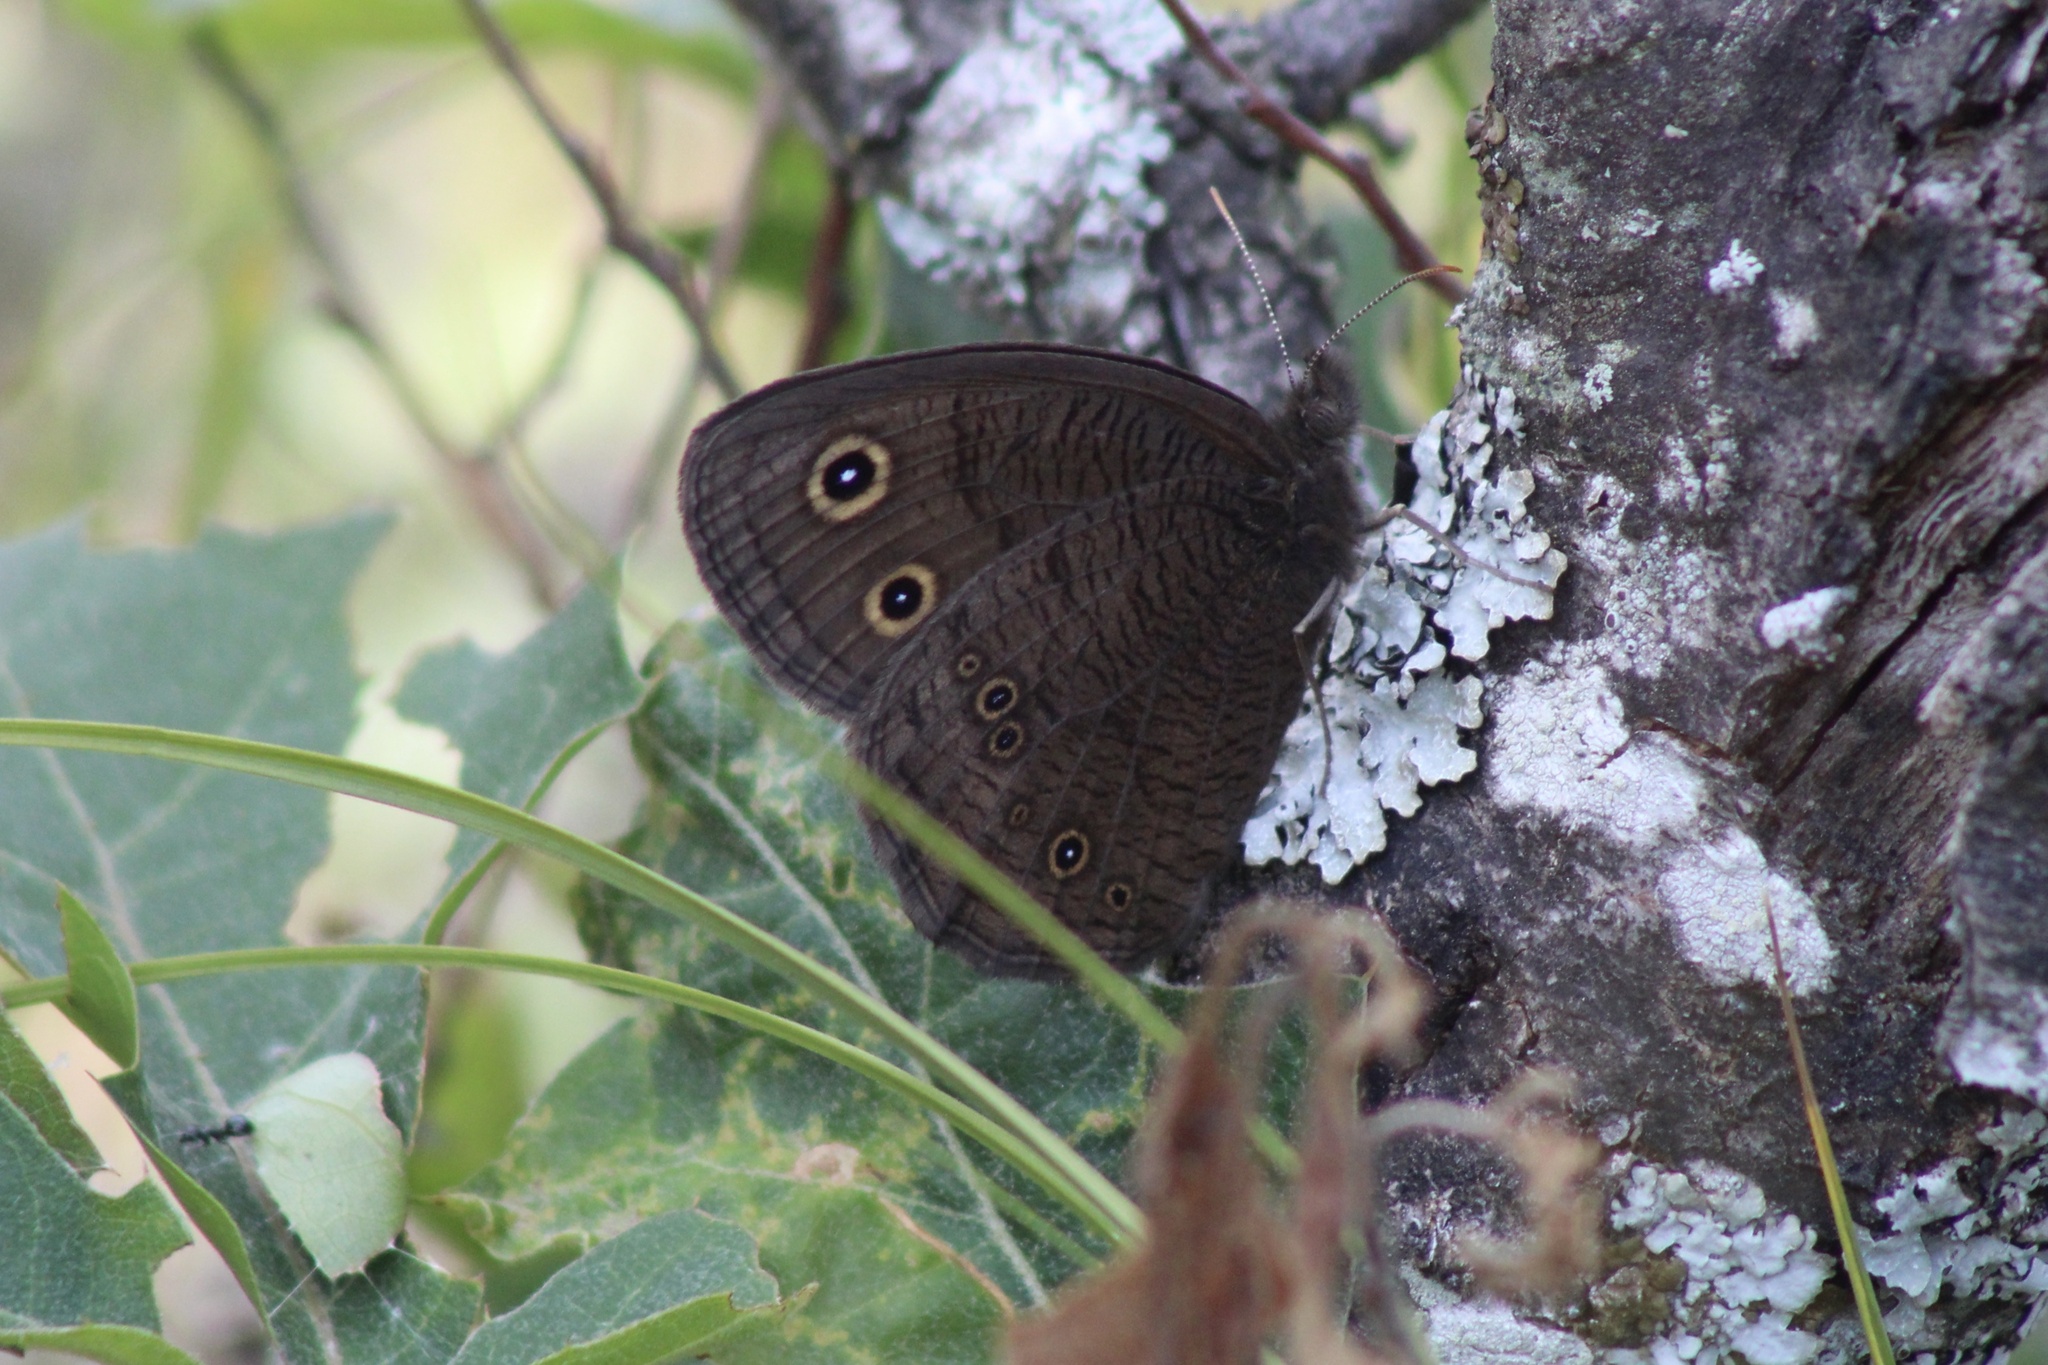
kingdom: Animalia
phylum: Arthropoda
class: Insecta
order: Lepidoptera
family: Nymphalidae
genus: Cercyonis
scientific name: Cercyonis pegala
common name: Common wood-nymph
